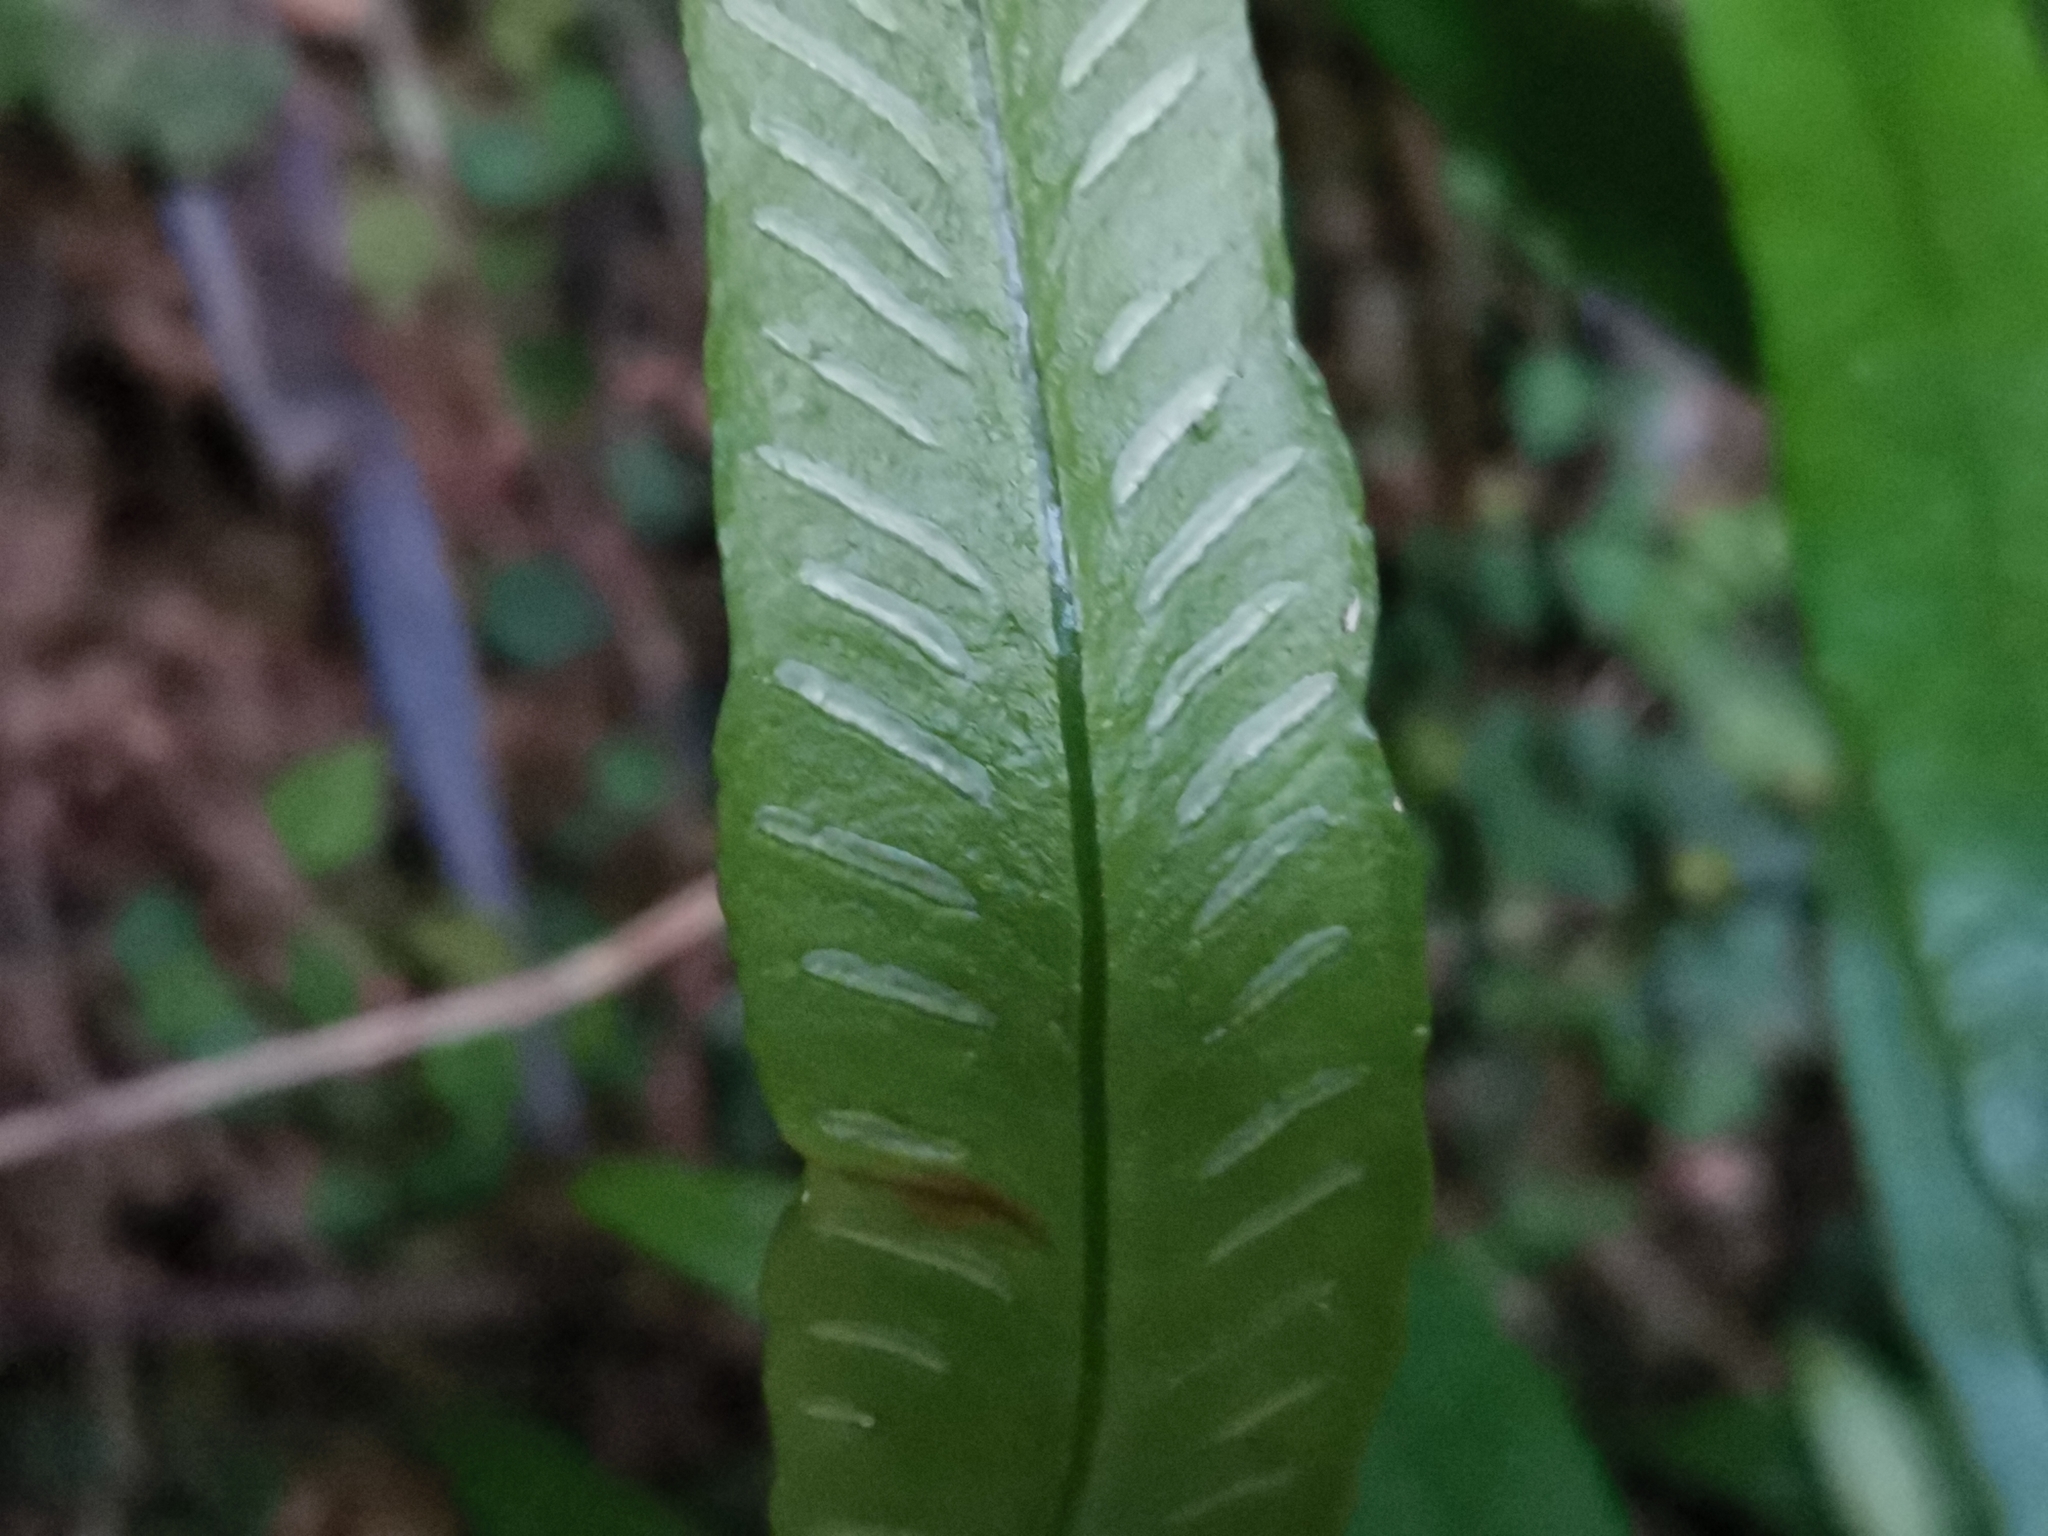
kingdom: Plantae
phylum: Tracheophyta
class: Polypodiopsida
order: Polypodiales
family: Athyriaceae
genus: Deparia
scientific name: Deparia lancea
